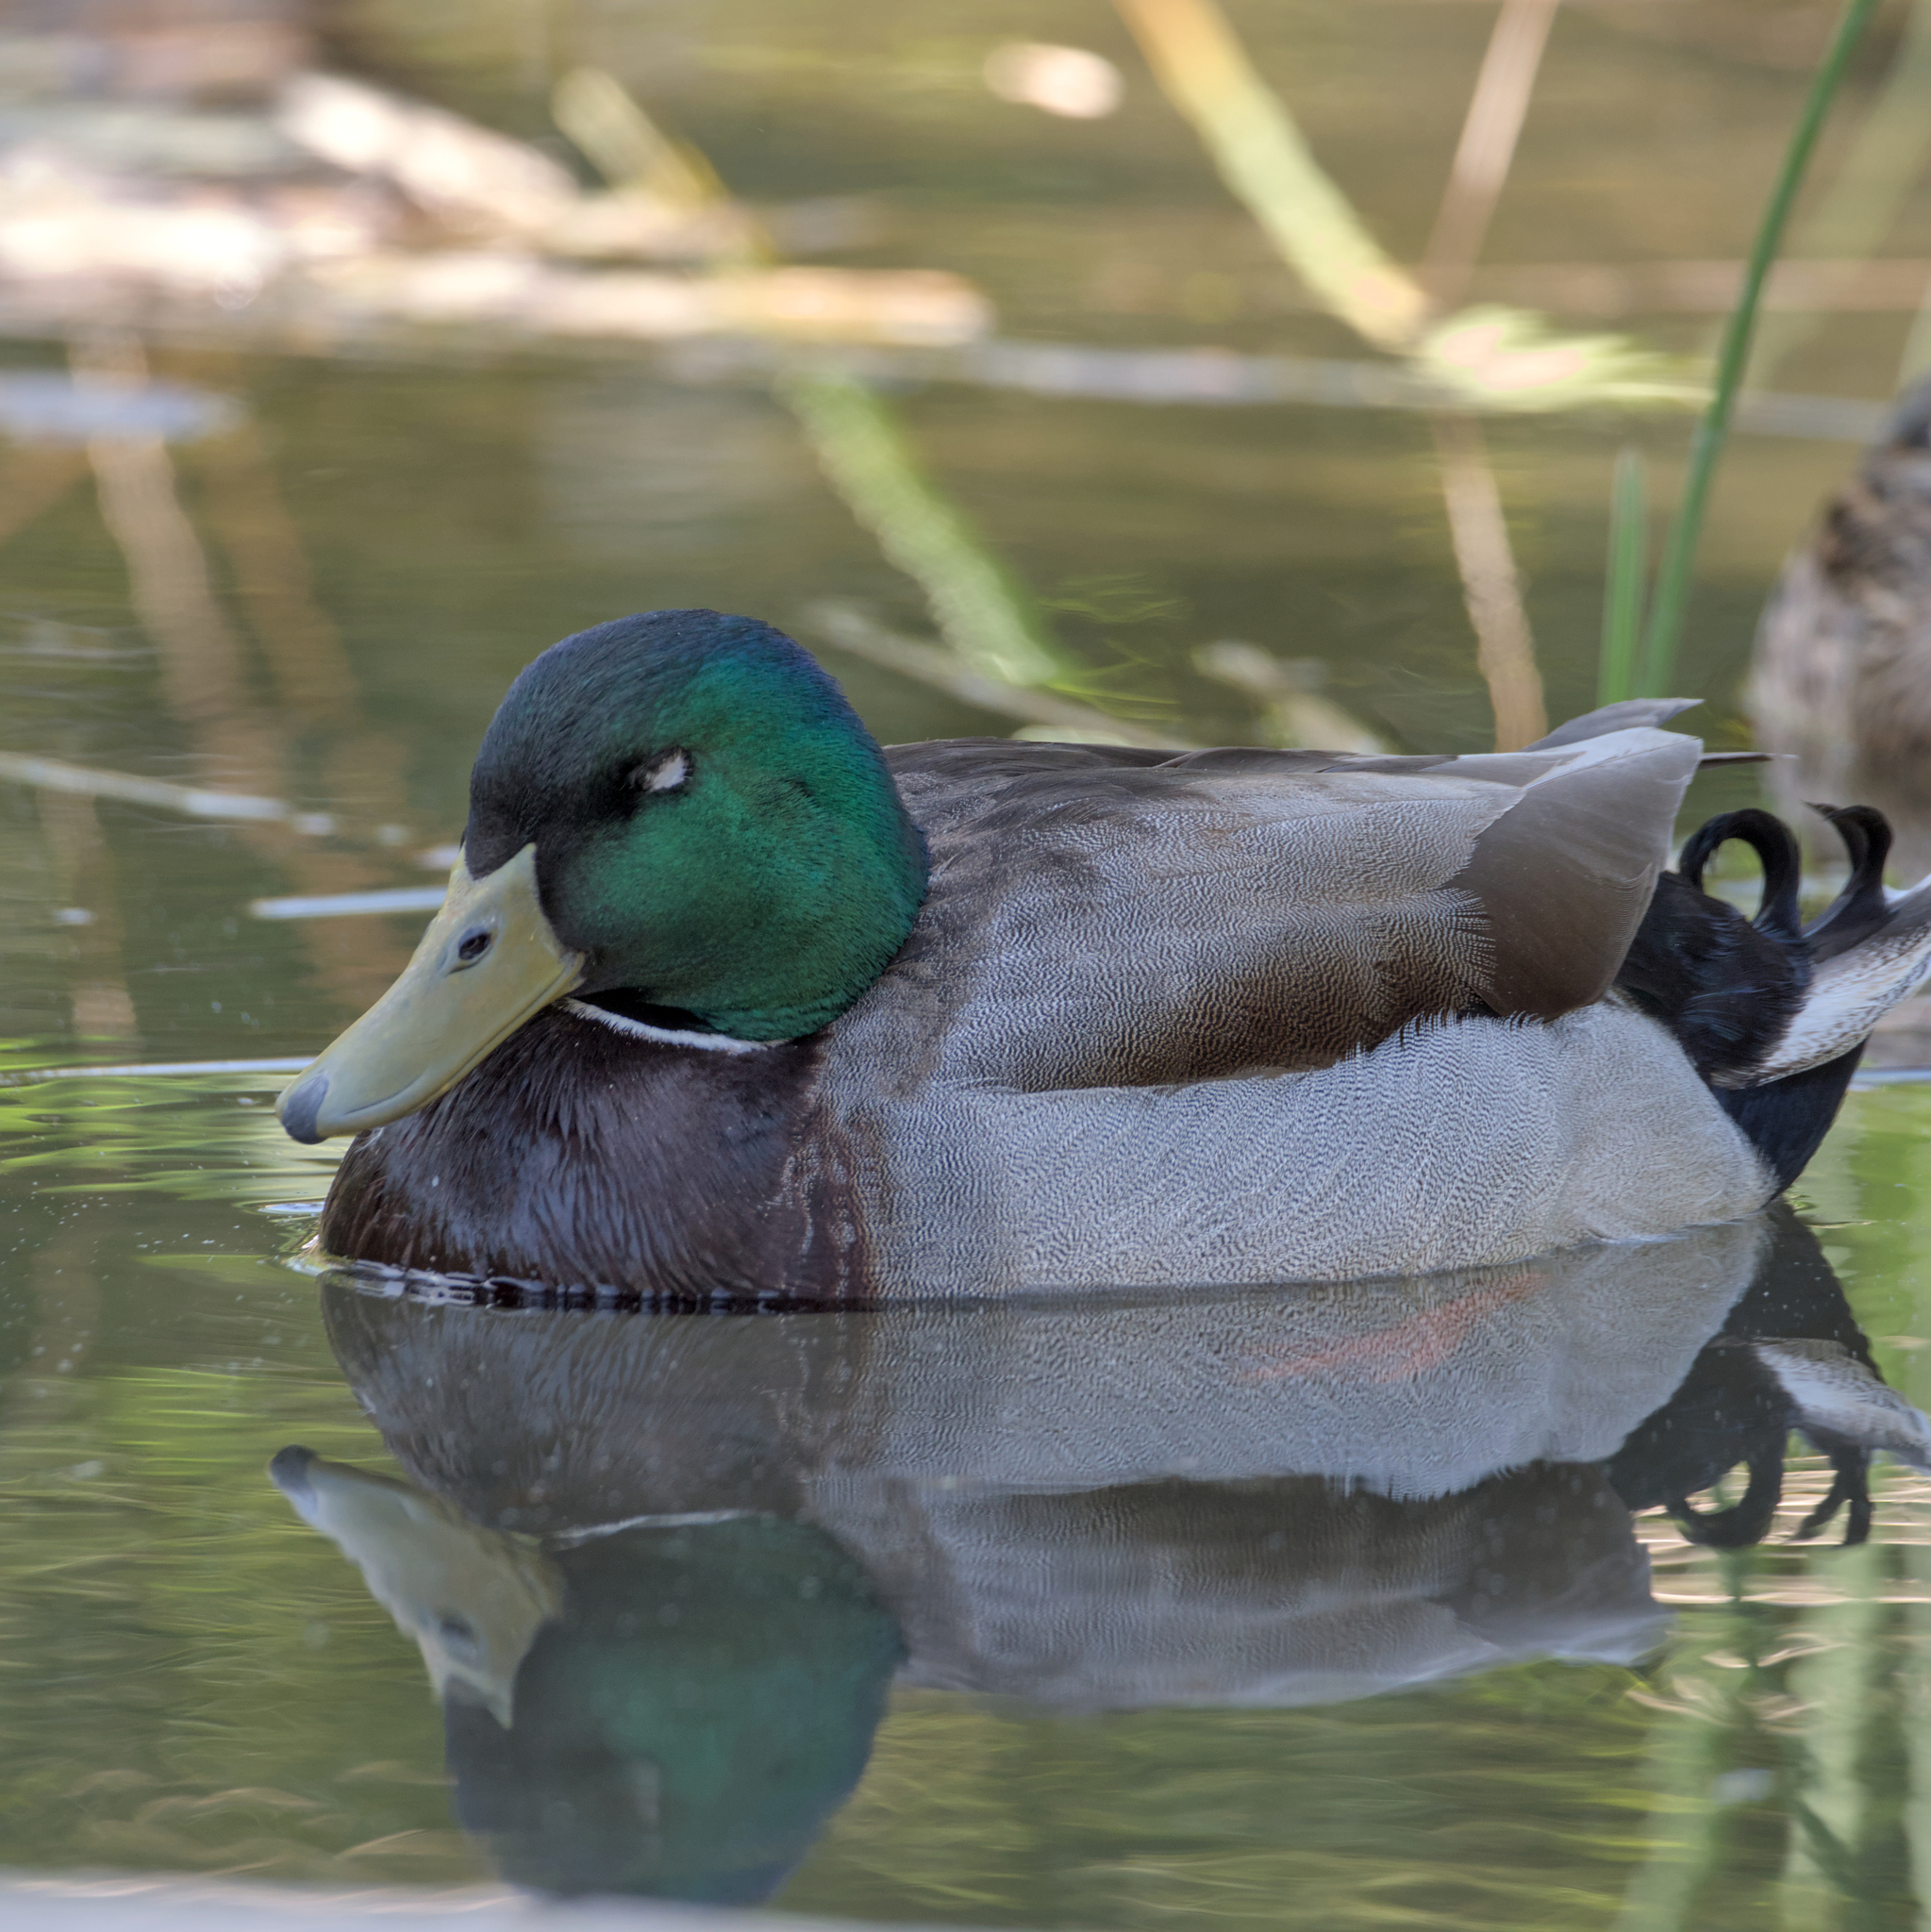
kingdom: Animalia
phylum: Chordata
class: Aves
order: Anseriformes
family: Anatidae
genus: Anas
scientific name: Anas platyrhynchos
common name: Mallard
